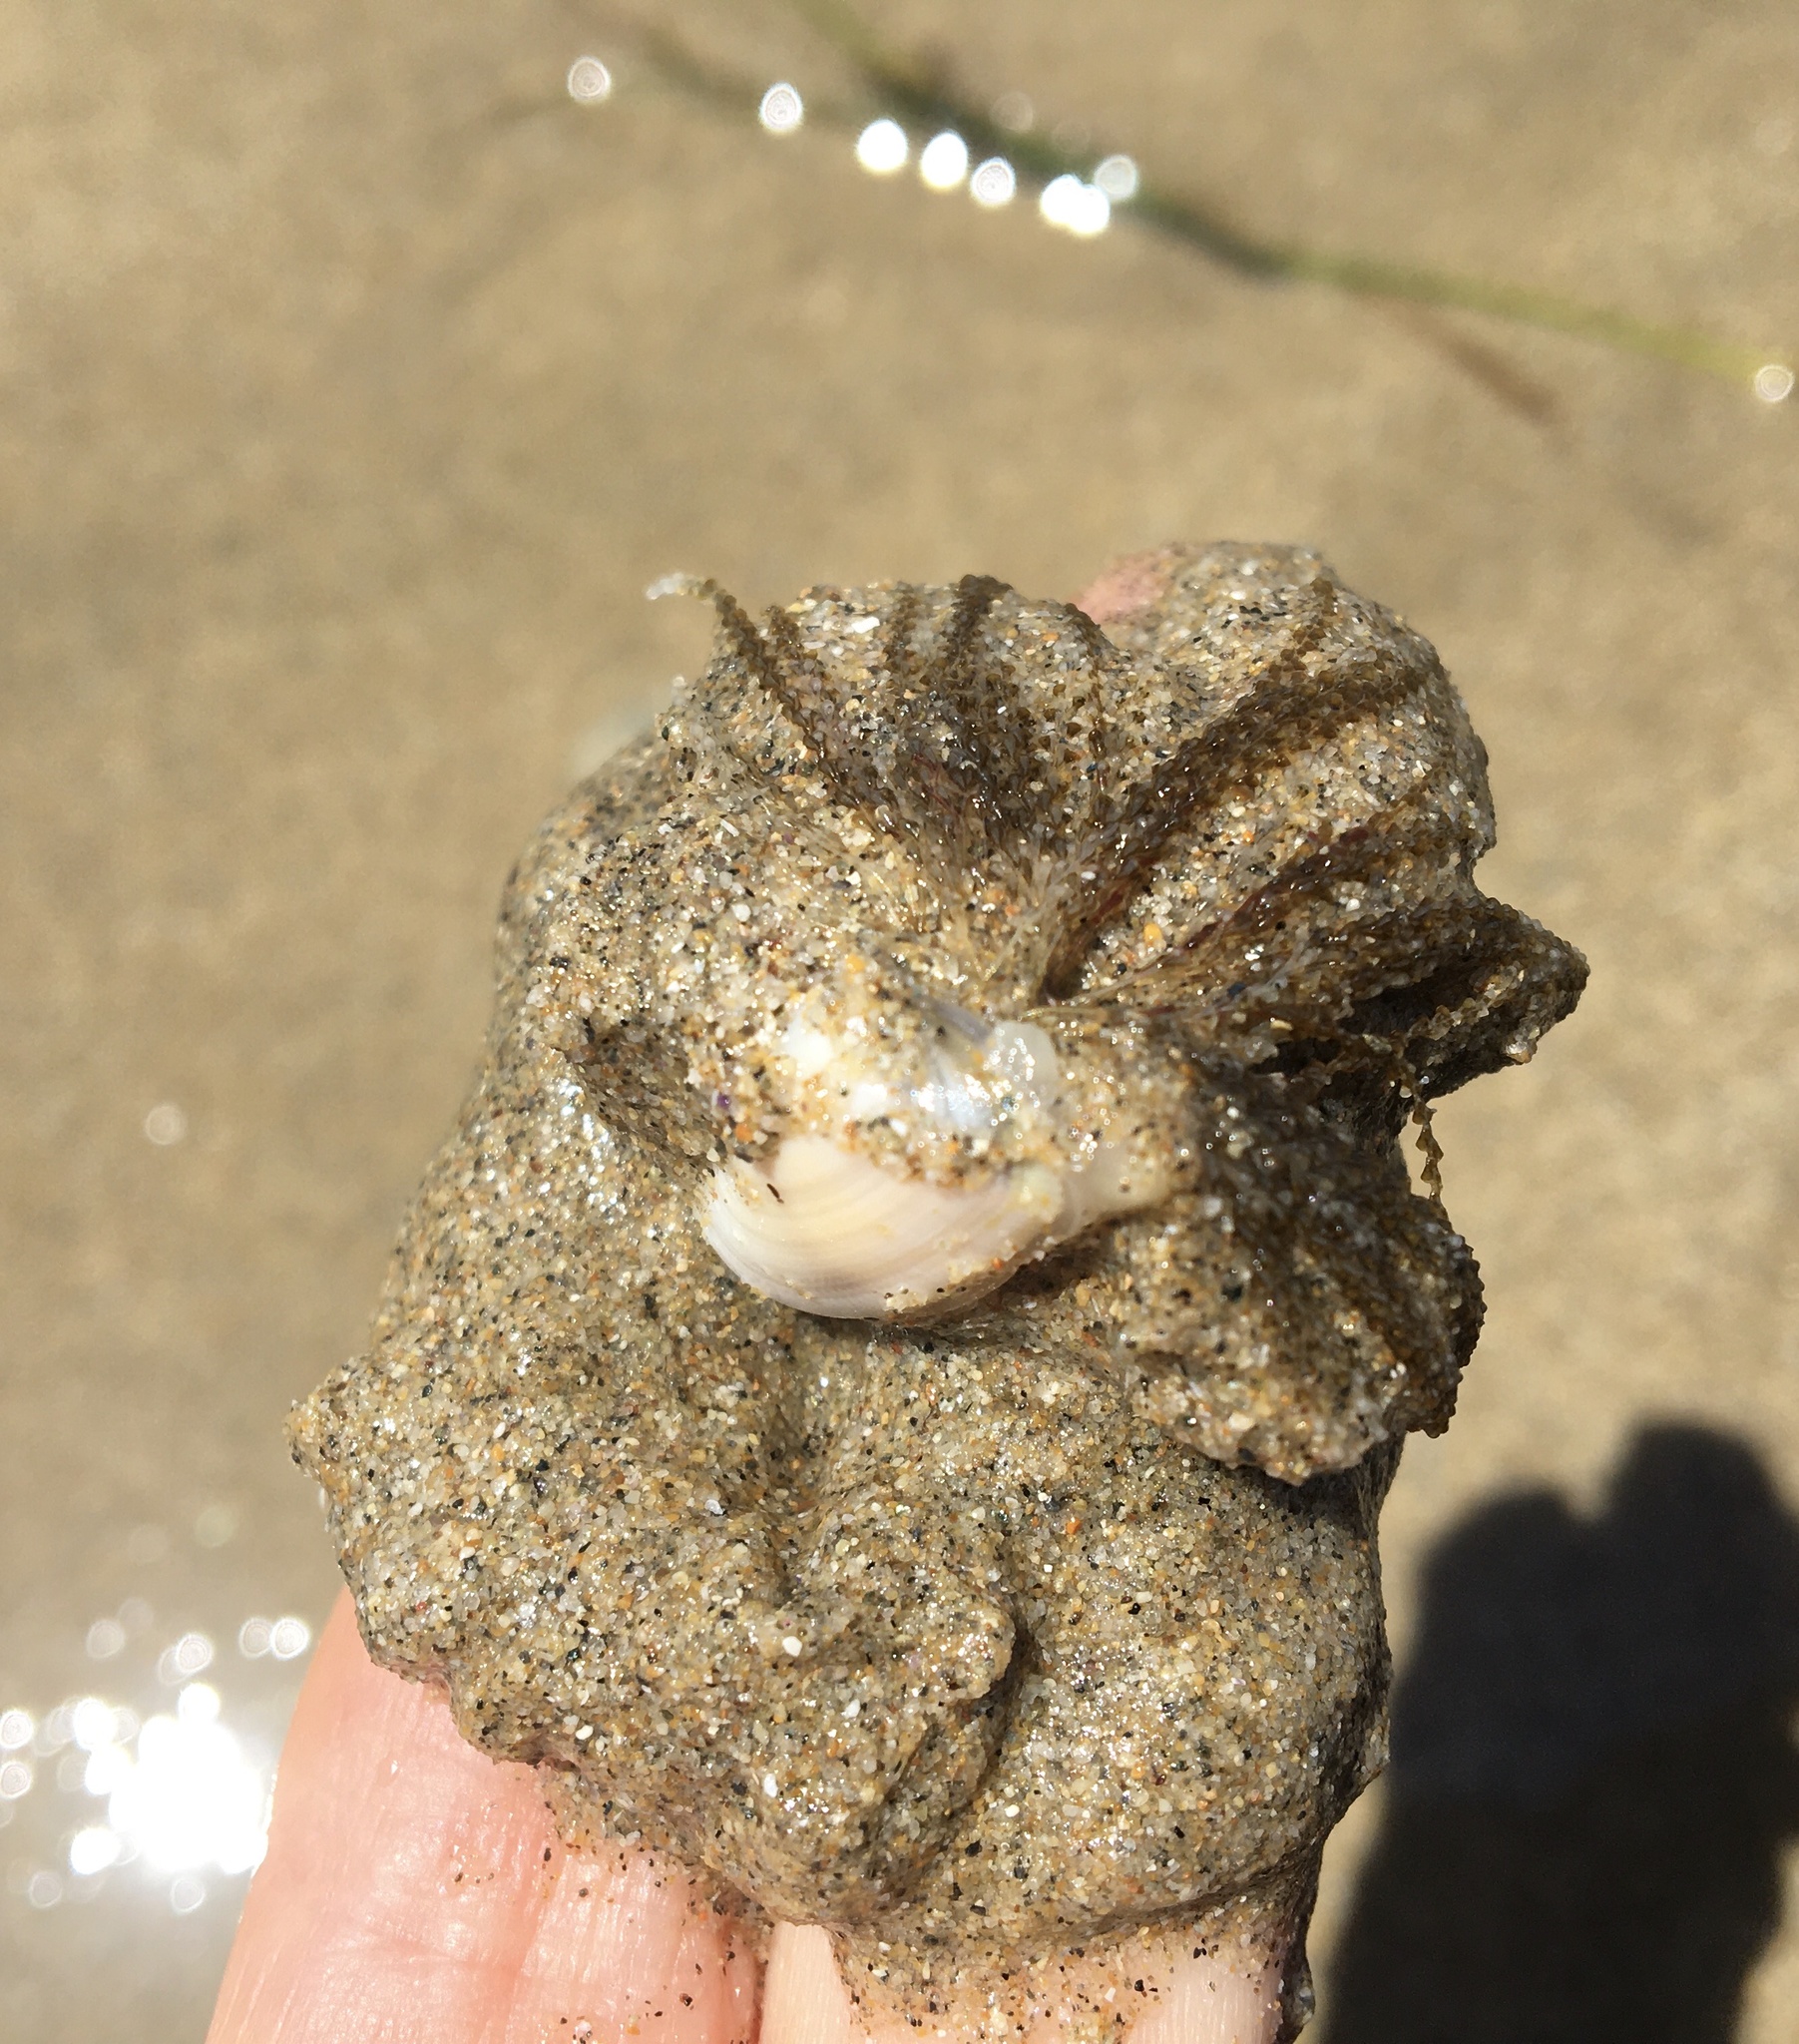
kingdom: Animalia
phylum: Cnidaria
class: Hydrozoa
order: Leptothecata
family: Lovenellidae
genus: Eucheilota
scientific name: Eucheilota bakeri
